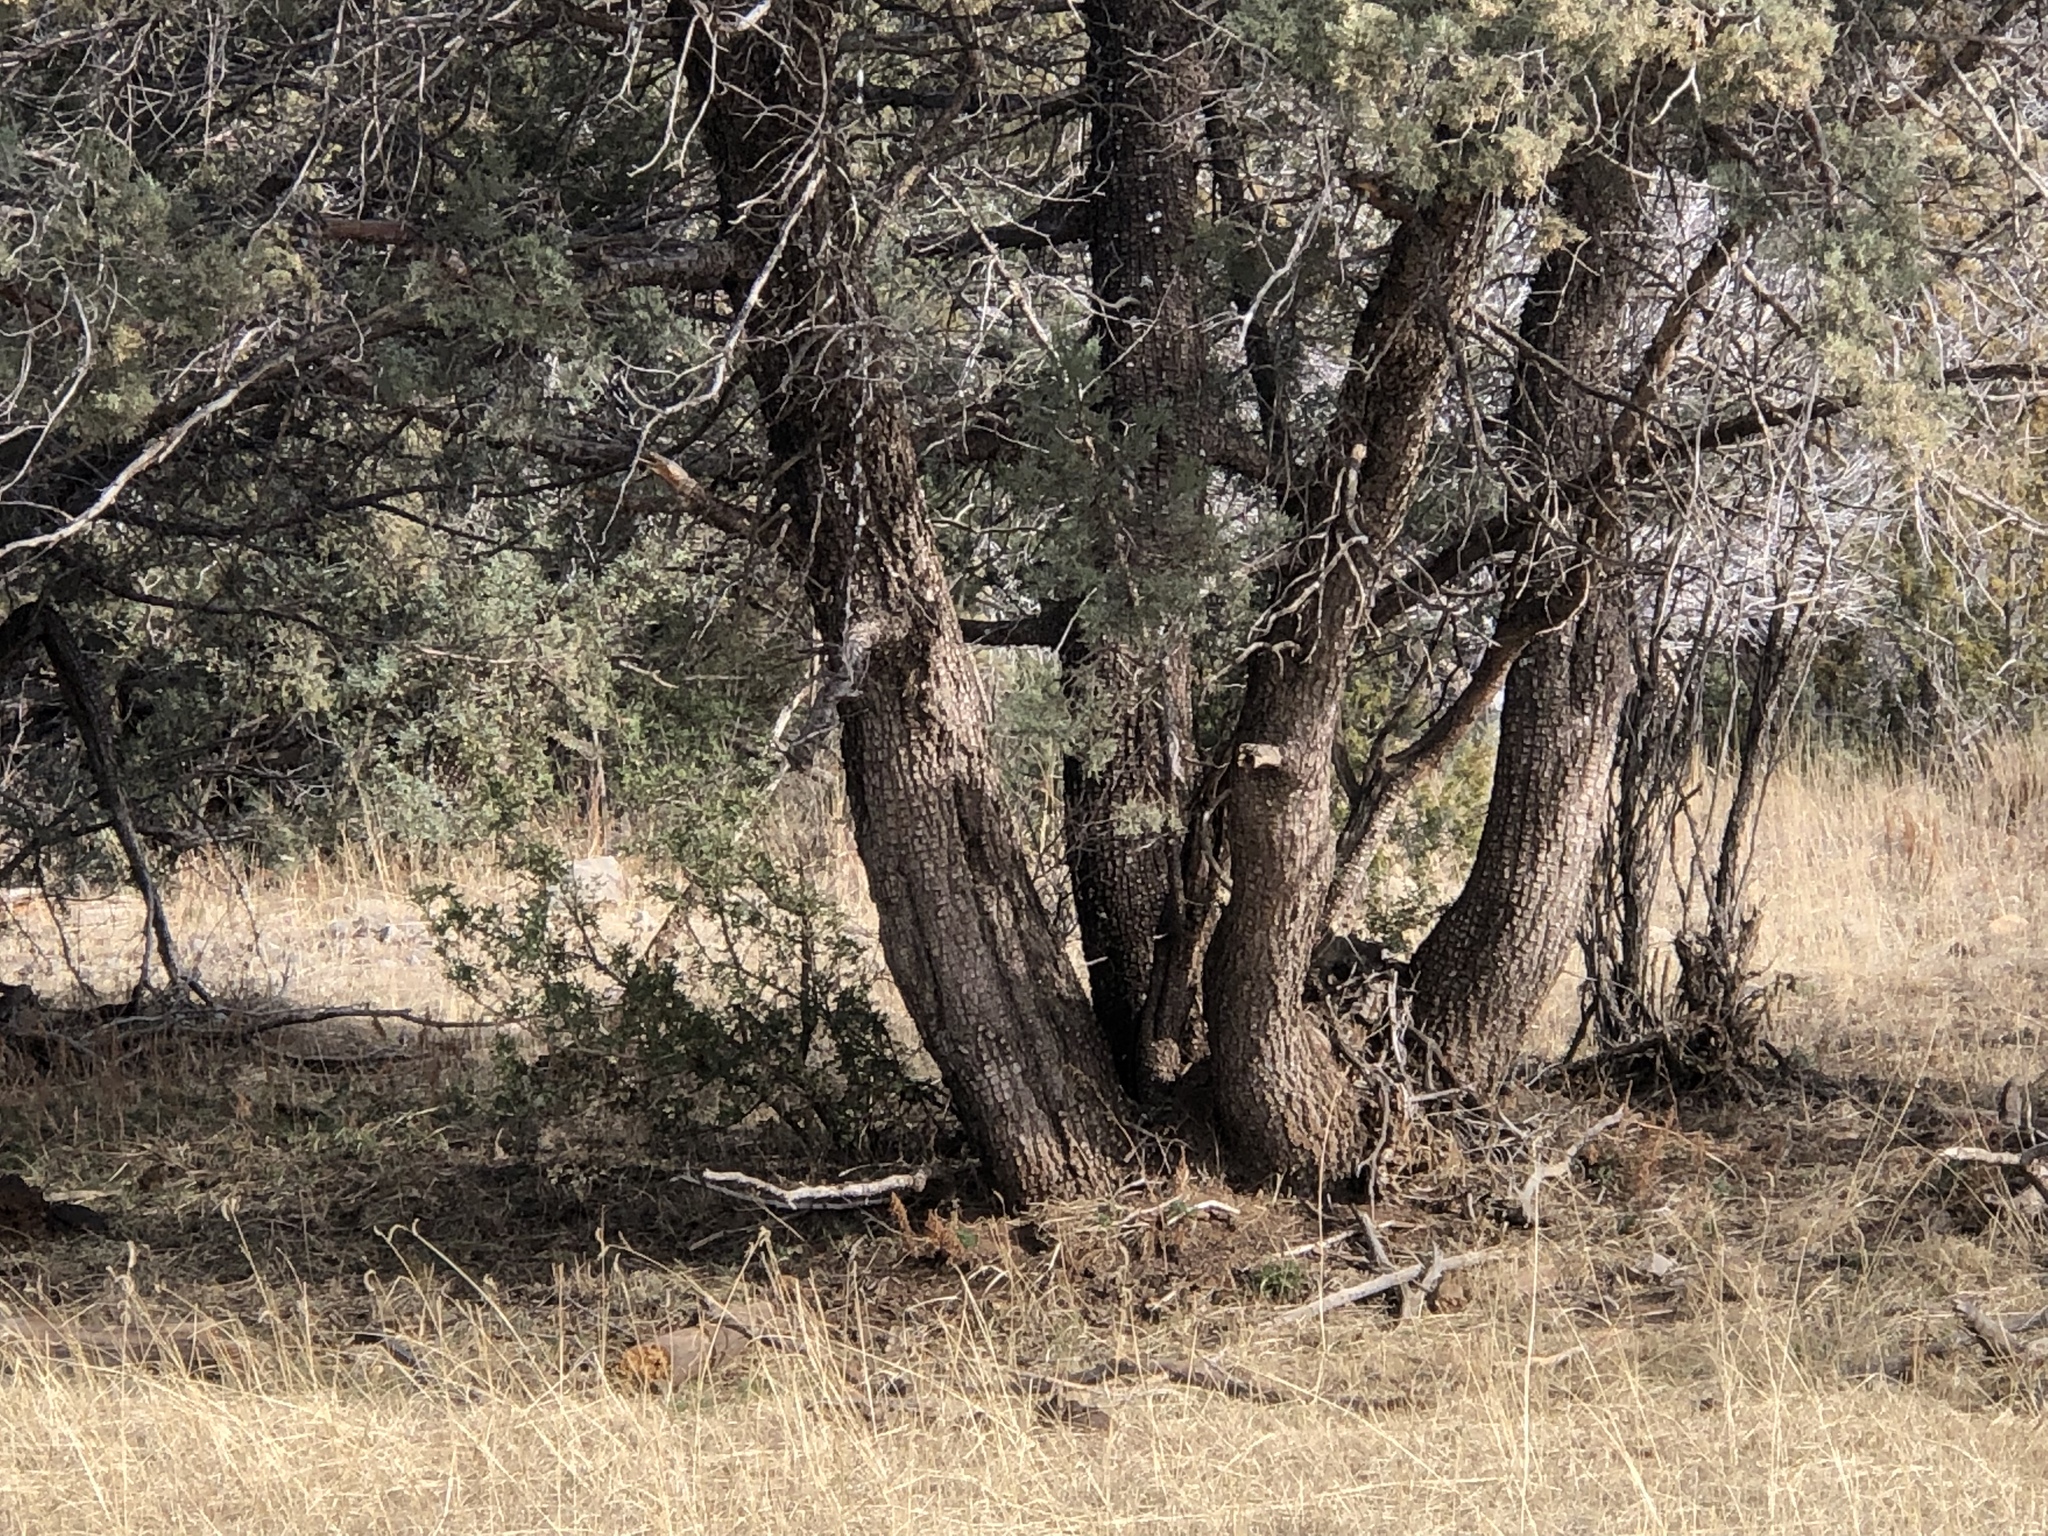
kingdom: Plantae
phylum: Tracheophyta
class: Pinopsida
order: Pinales
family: Cupressaceae
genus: Juniperus
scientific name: Juniperus deppeana
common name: Alligator juniper
